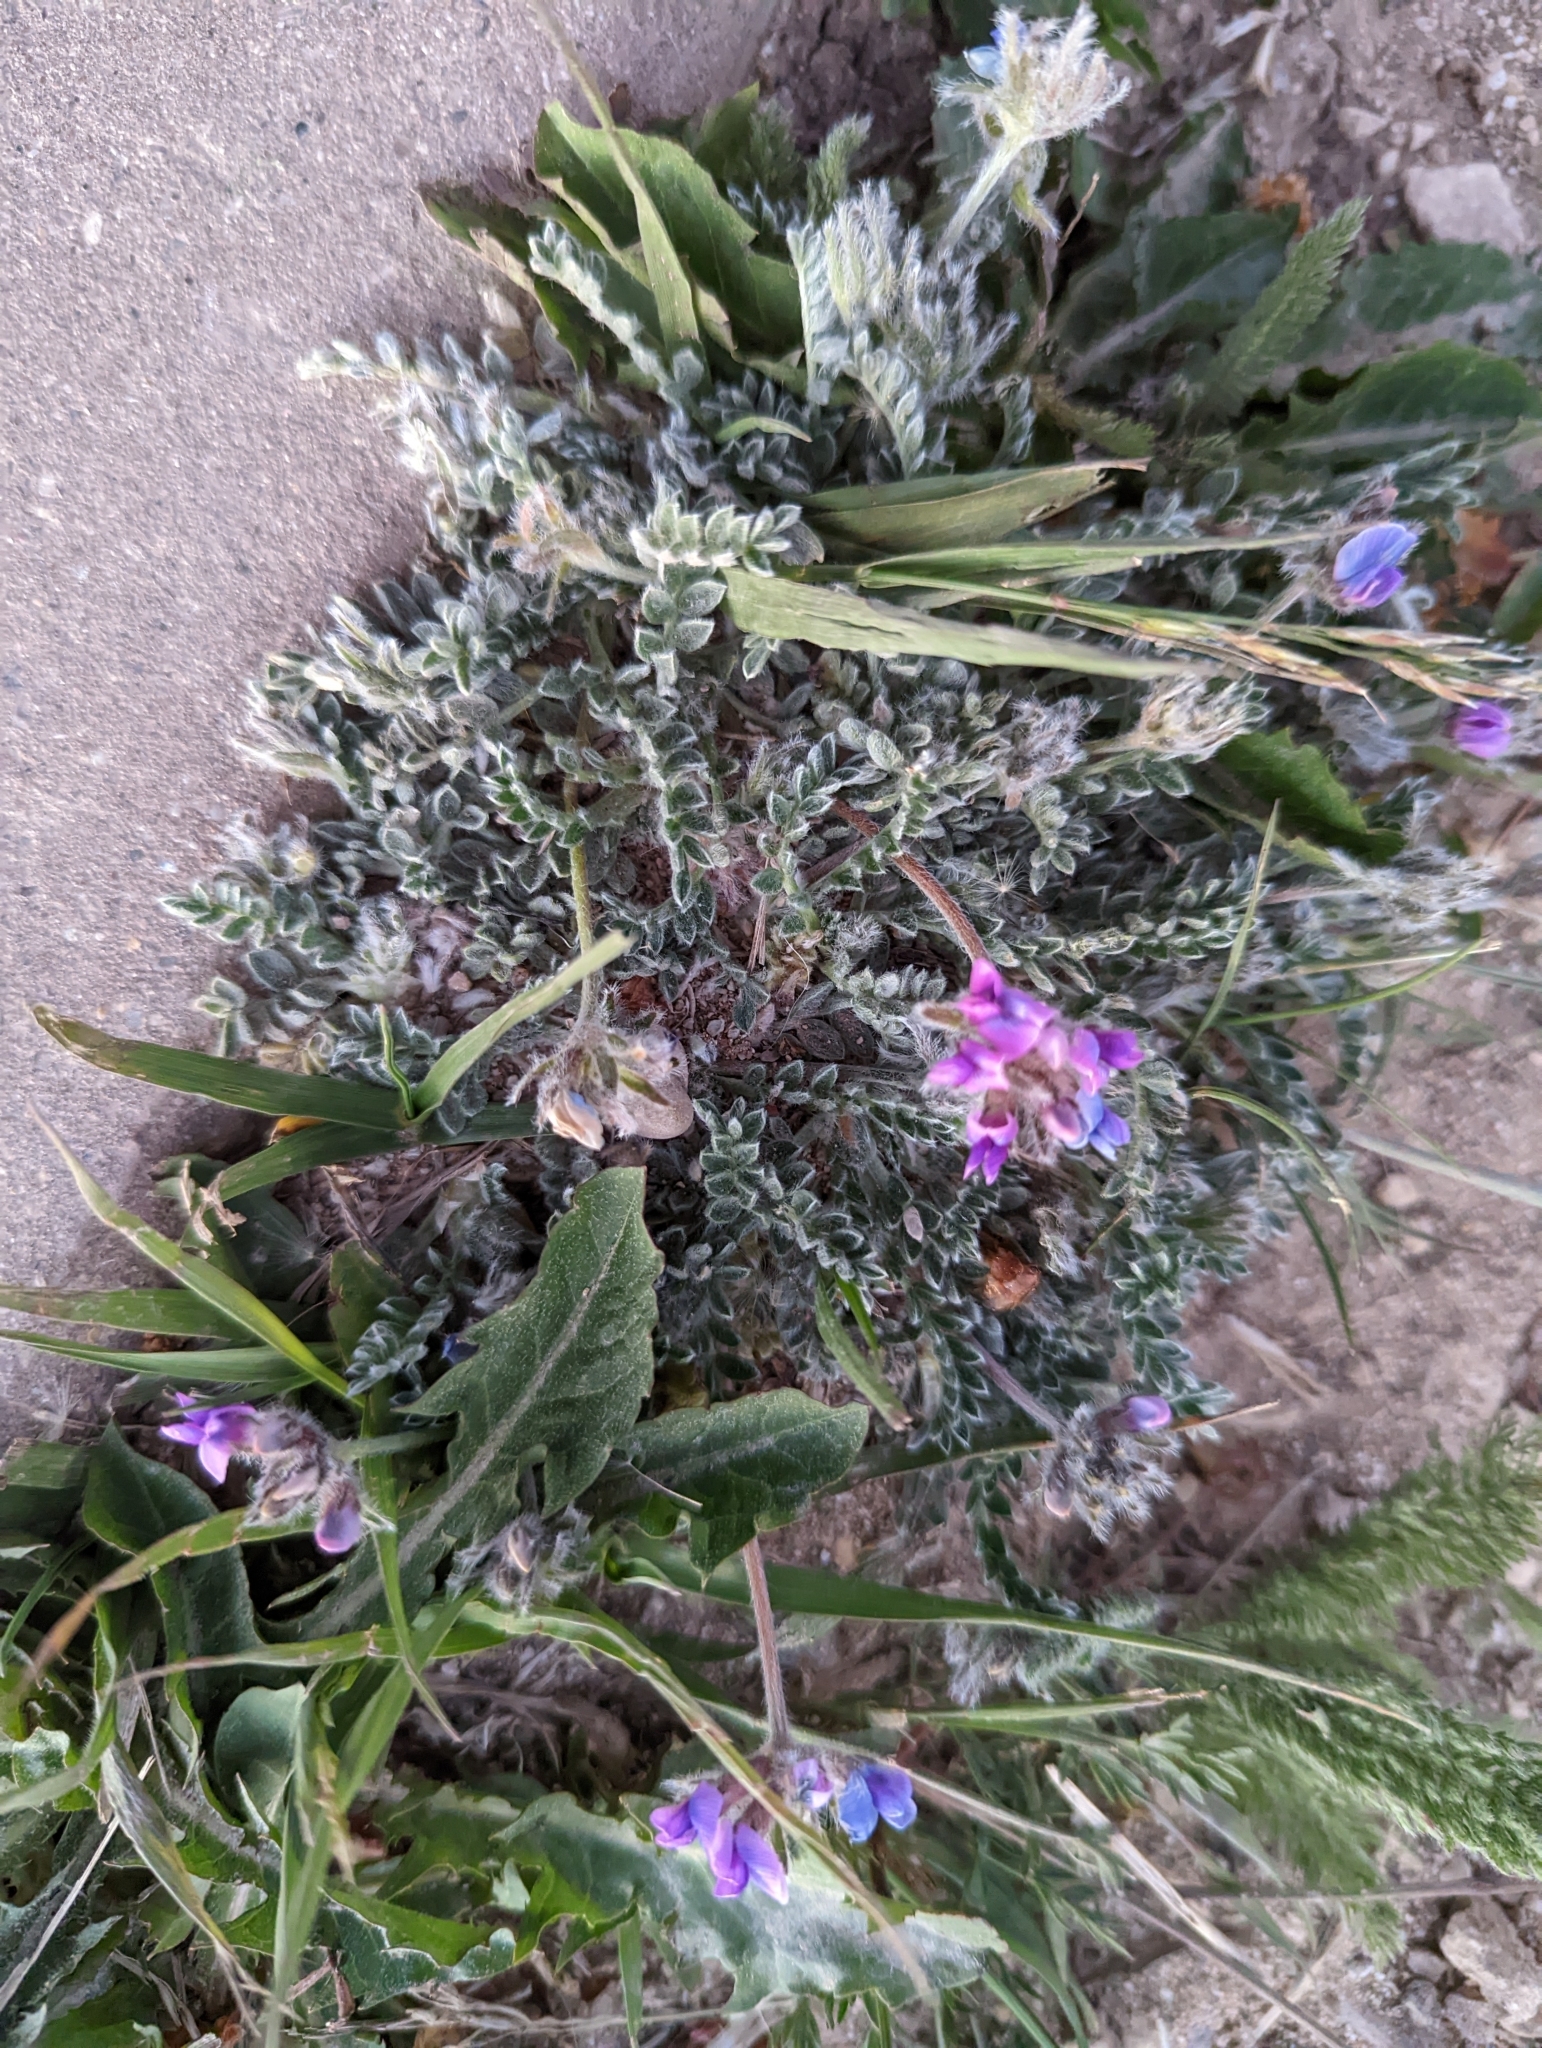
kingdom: Plantae
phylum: Tracheophyta
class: Magnoliopsida
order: Fabales
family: Fabaceae
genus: Oxytropis
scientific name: Oxytropis oreophila
